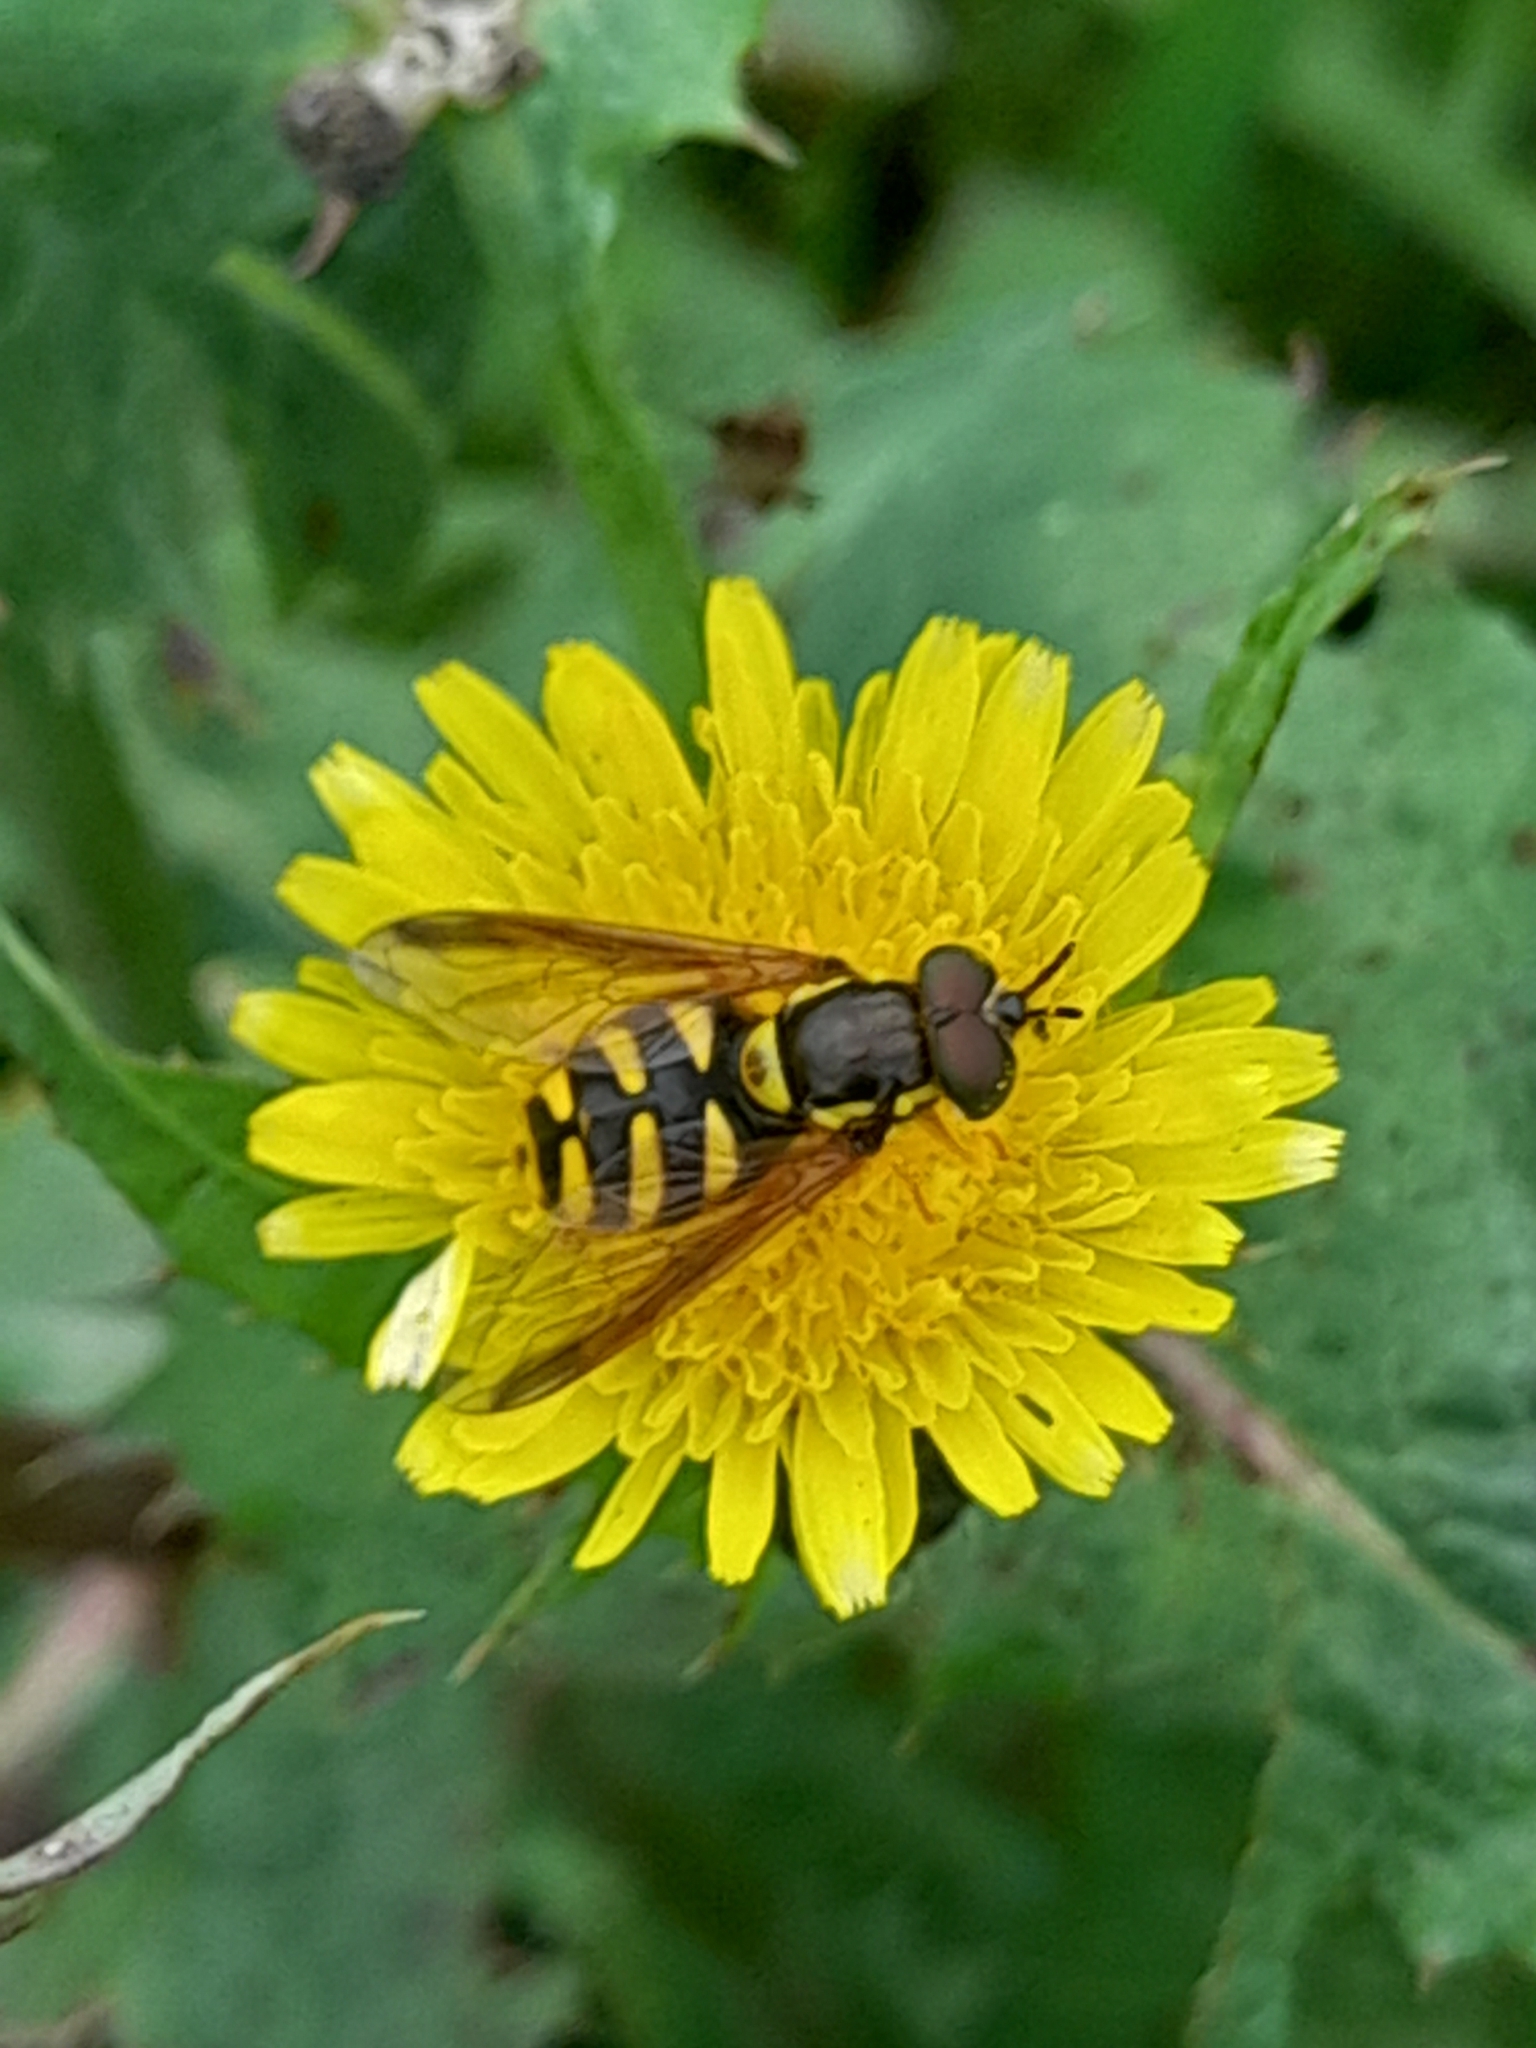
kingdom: Animalia
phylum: Arthropoda
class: Insecta
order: Diptera
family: Syrphidae
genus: Chrysotoxum
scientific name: Chrysotoxum intermedium
